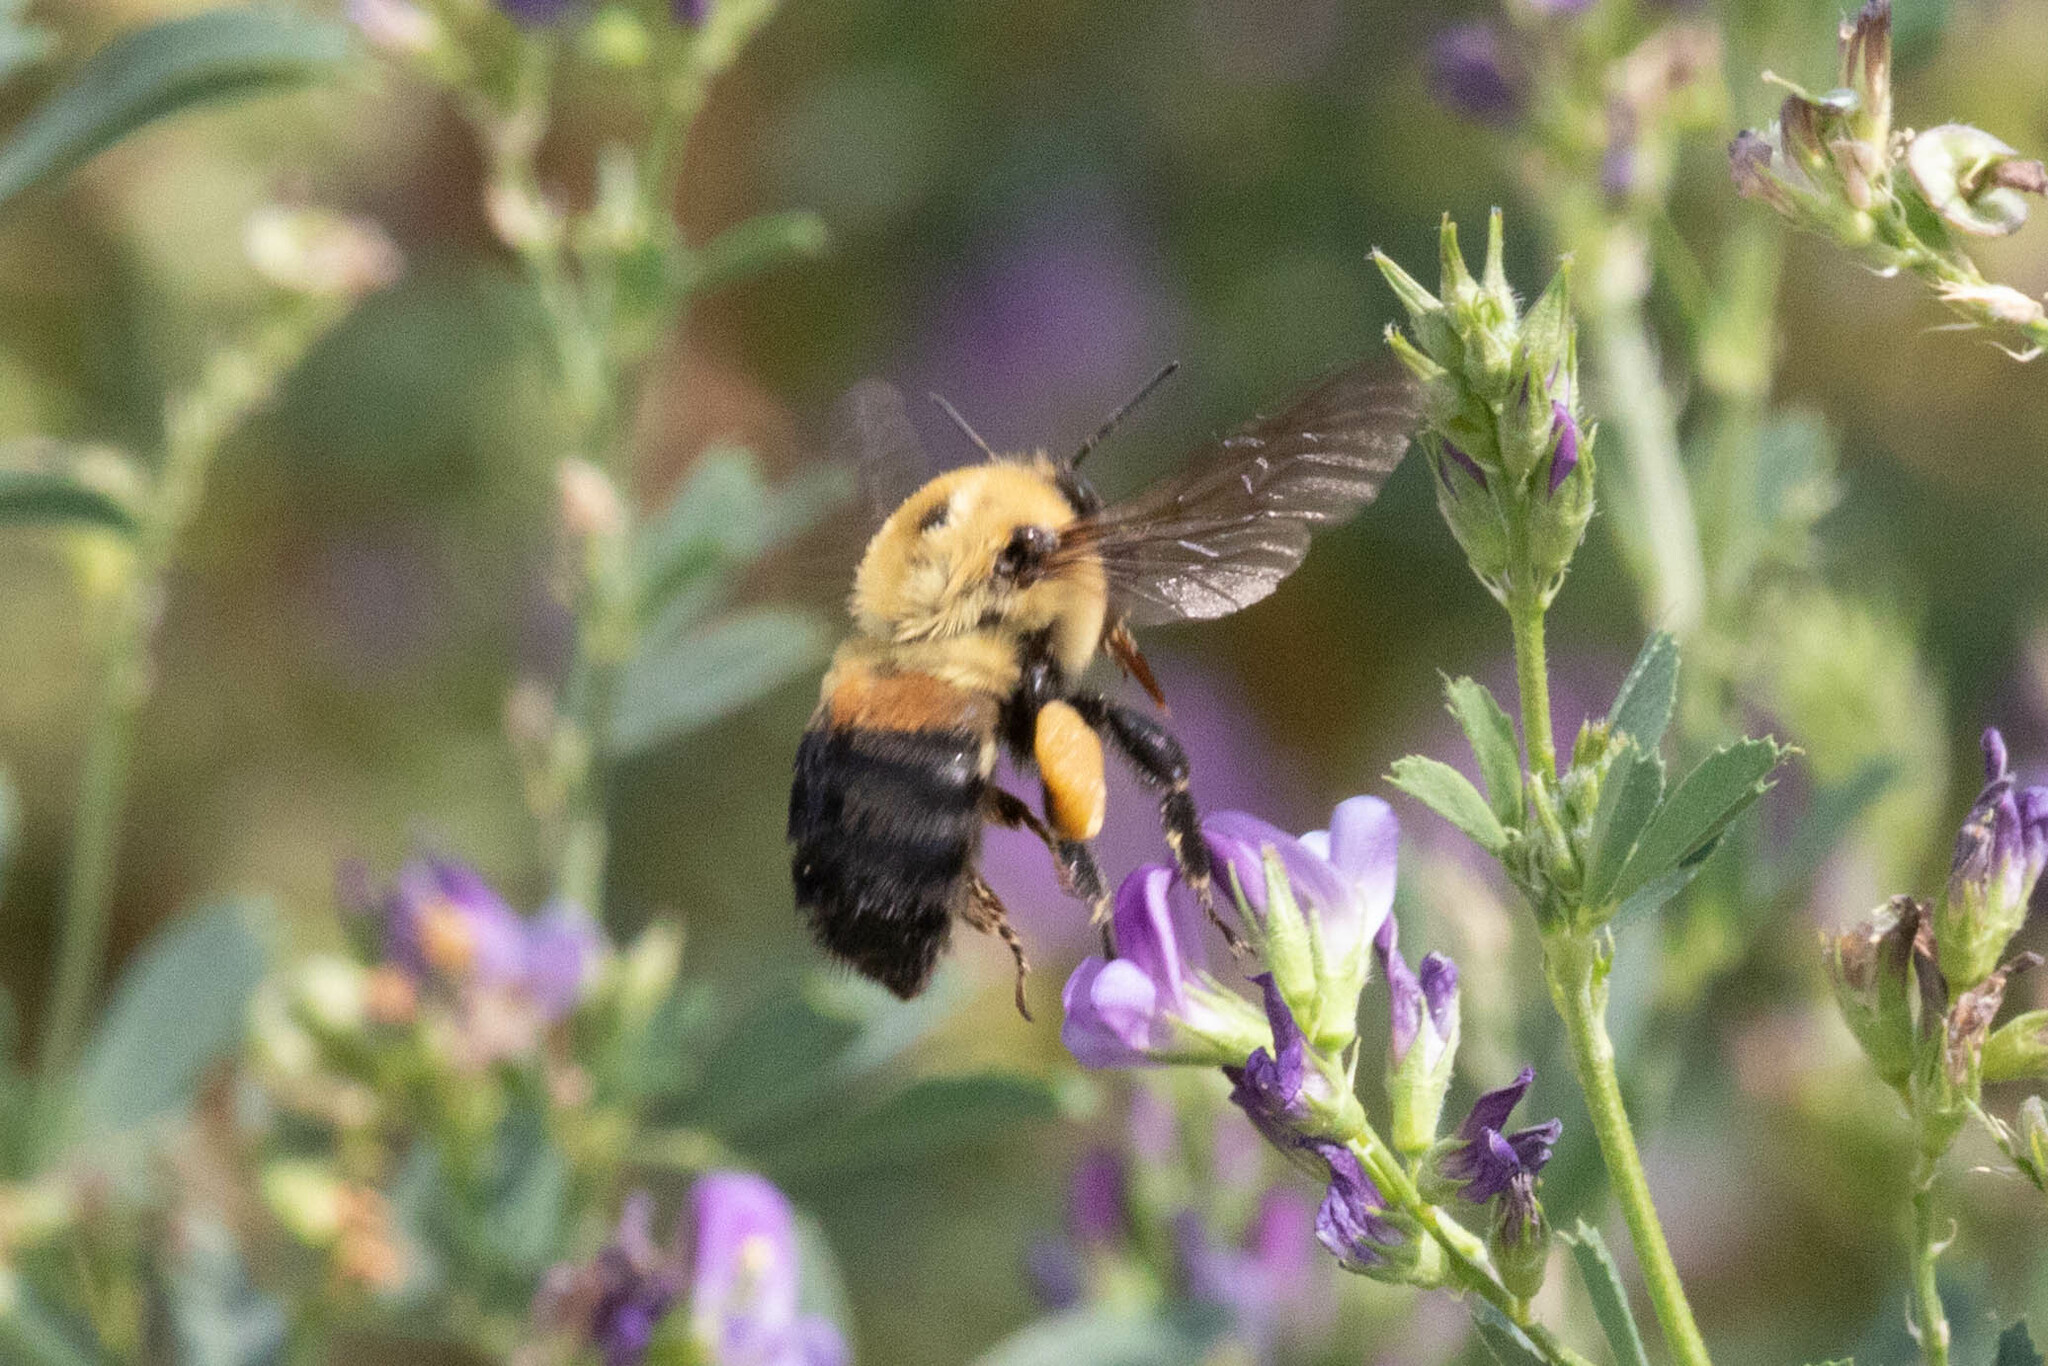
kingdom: Animalia
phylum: Arthropoda
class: Insecta
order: Hymenoptera
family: Apidae
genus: Bombus
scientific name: Bombus griseocollis
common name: Brown-belted bumble bee
